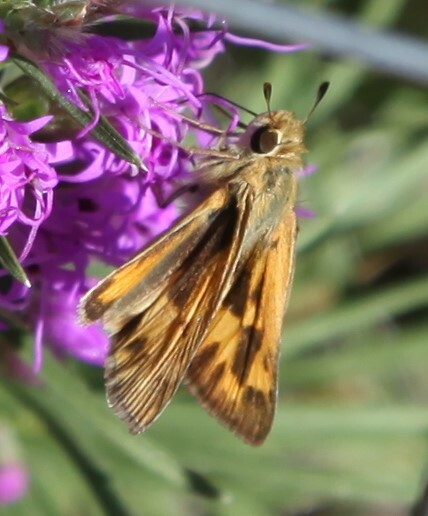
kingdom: Animalia
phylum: Arthropoda
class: Insecta
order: Lepidoptera
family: Hesperiidae
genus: Hylephila
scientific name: Hylephila phyleus
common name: Fiery skipper
